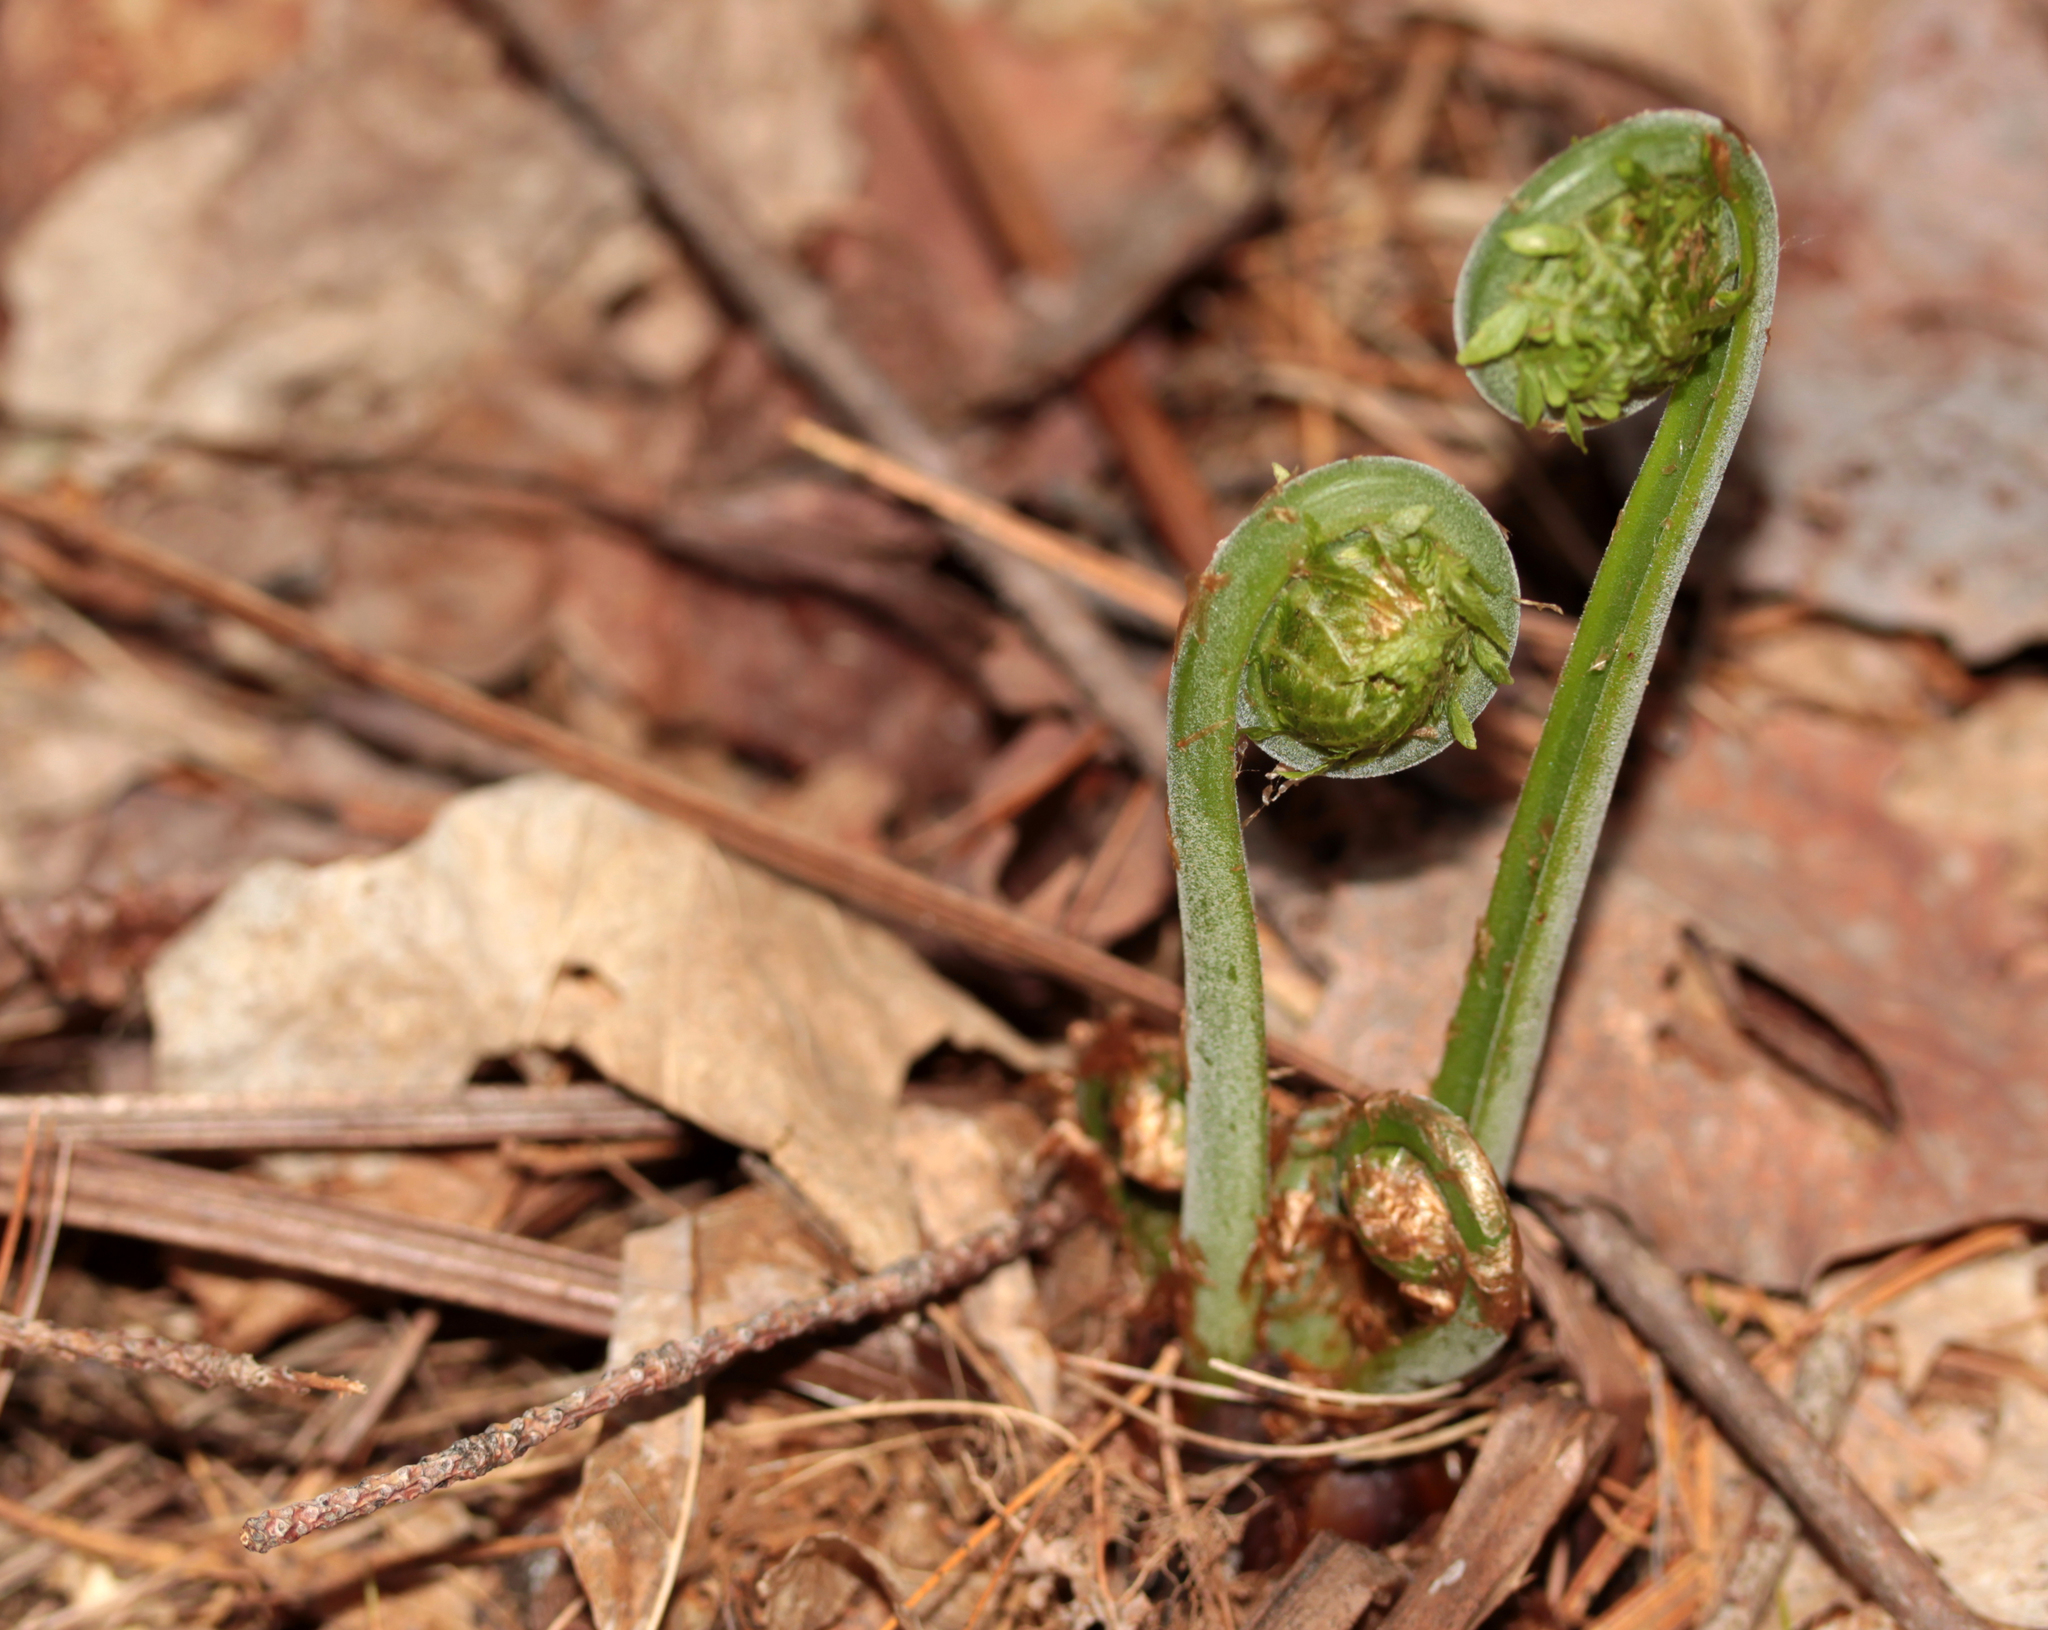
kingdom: Plantae
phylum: Tracheophyta
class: Polypodiopsida
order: Polypodiales
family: Onocleaceae
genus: Matteuccia
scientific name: Matteuccia struthiopteris
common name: Ostrich fern
